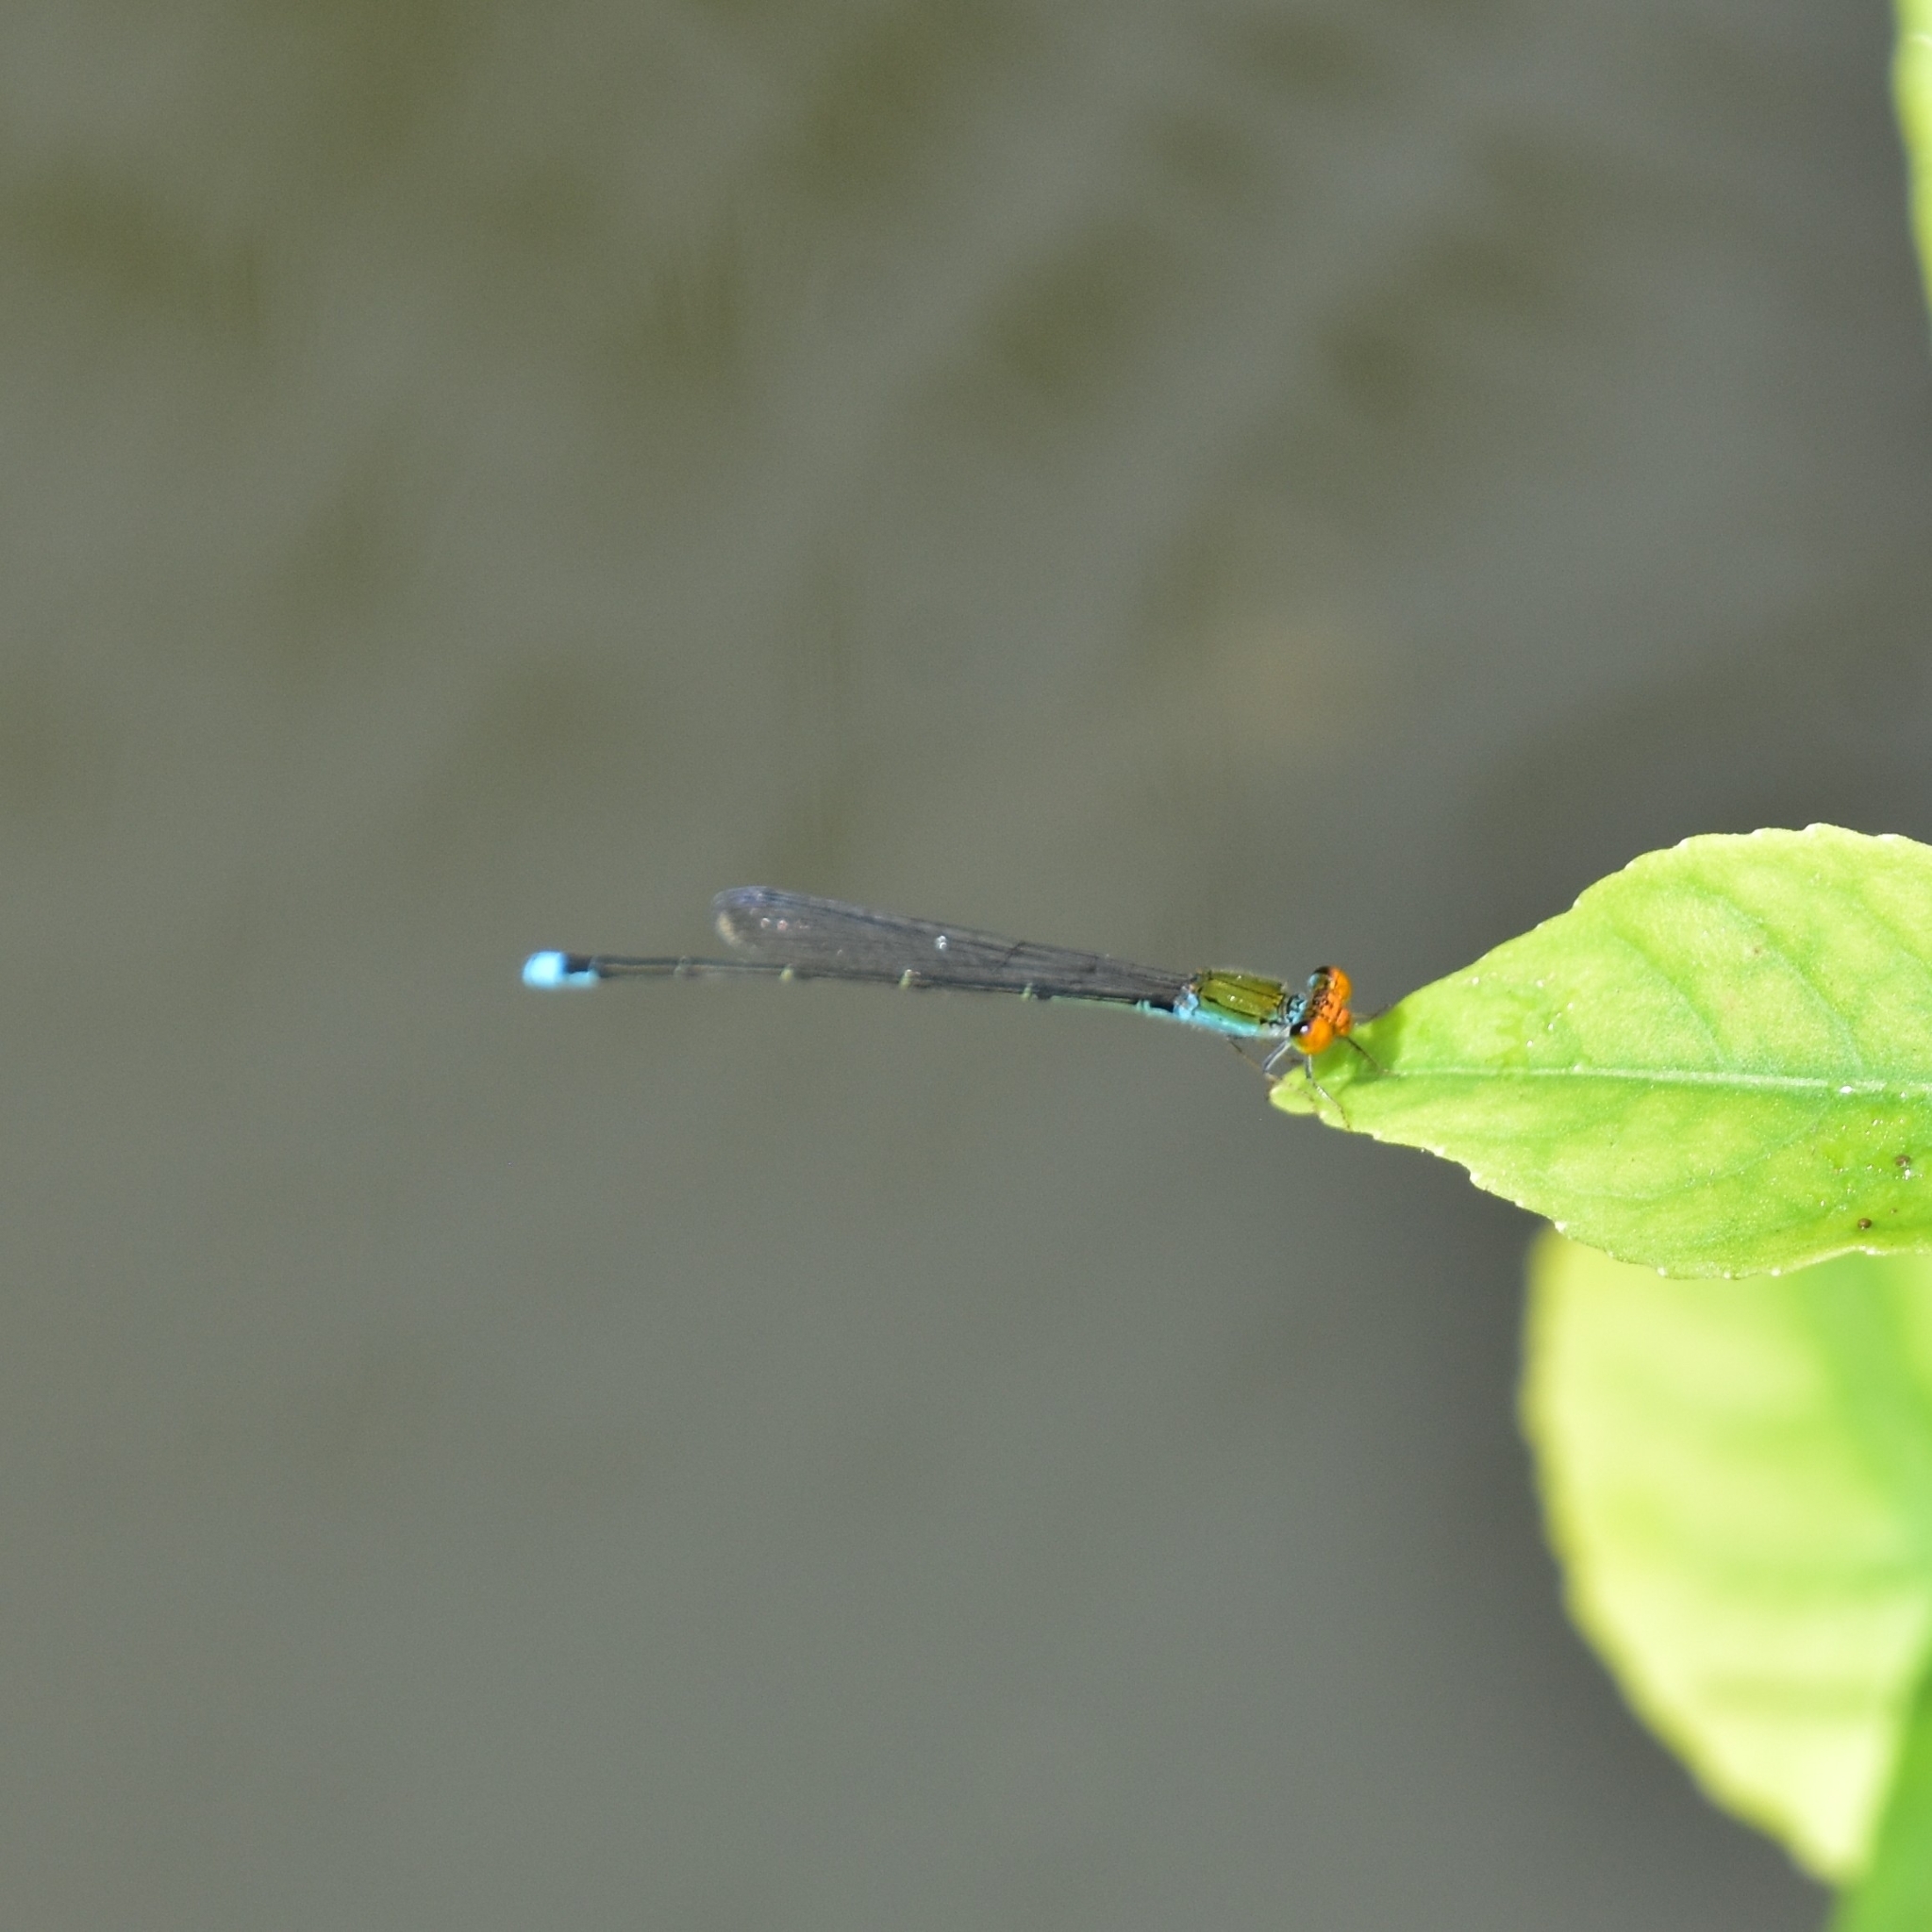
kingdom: Animalia
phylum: Arthropoda
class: Insecta
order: Odonata
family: Coenagrionidae
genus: Pseudagrion
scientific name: Pseudagrion rubriceps
